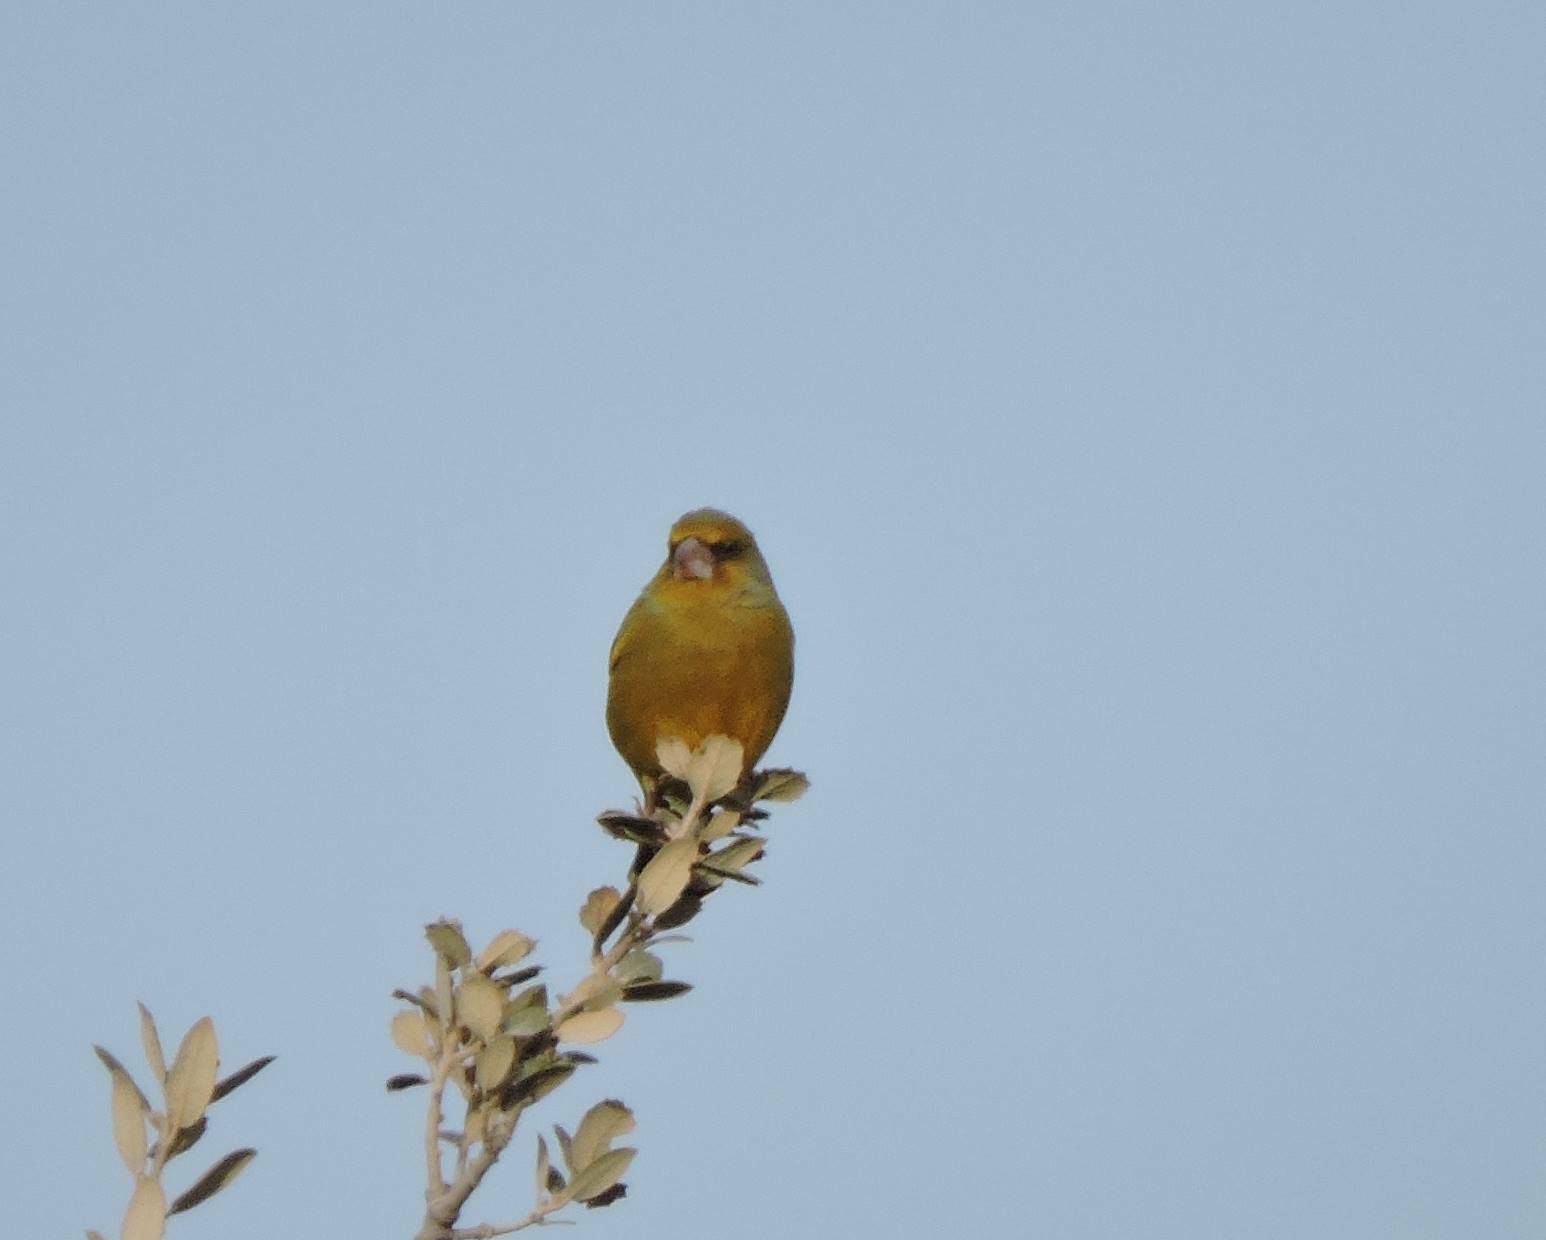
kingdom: Plantae
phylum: Tracheophyta
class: Liliopsida
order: Poales
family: Poaceae
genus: Chloris
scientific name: Chloris chloris
